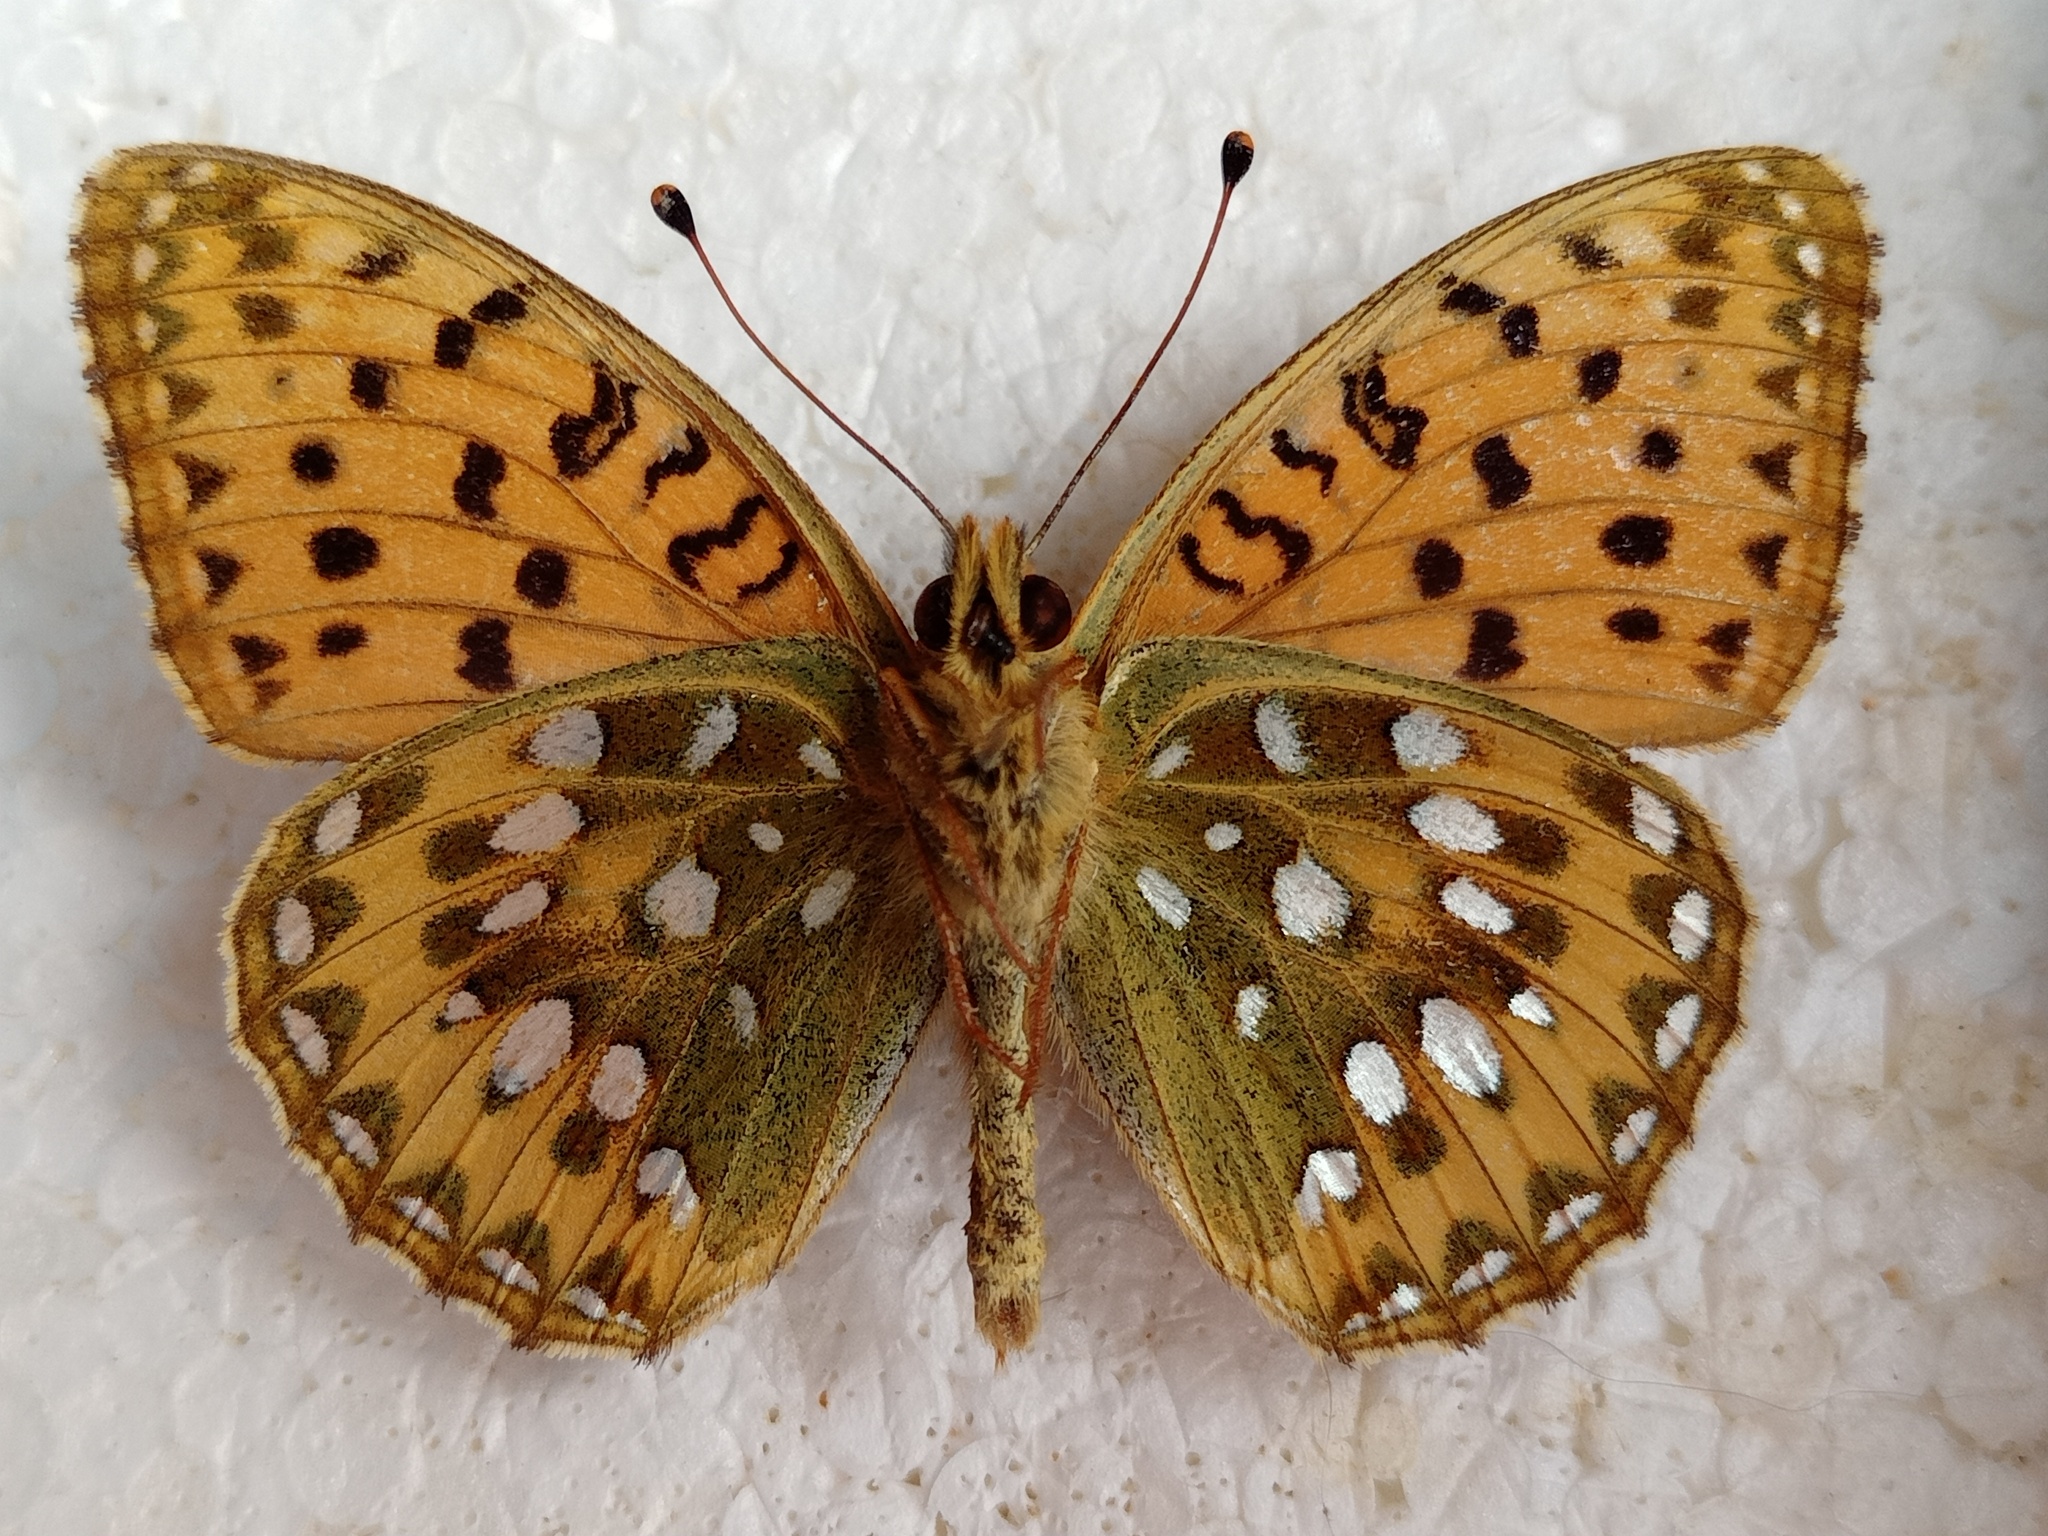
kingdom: Animalia
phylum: Arthropoda
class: Insecta
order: Lepidoptera
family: Nymphalidae
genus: Speyeria
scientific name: Speyeria aglaja
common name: Dark green fritillary
